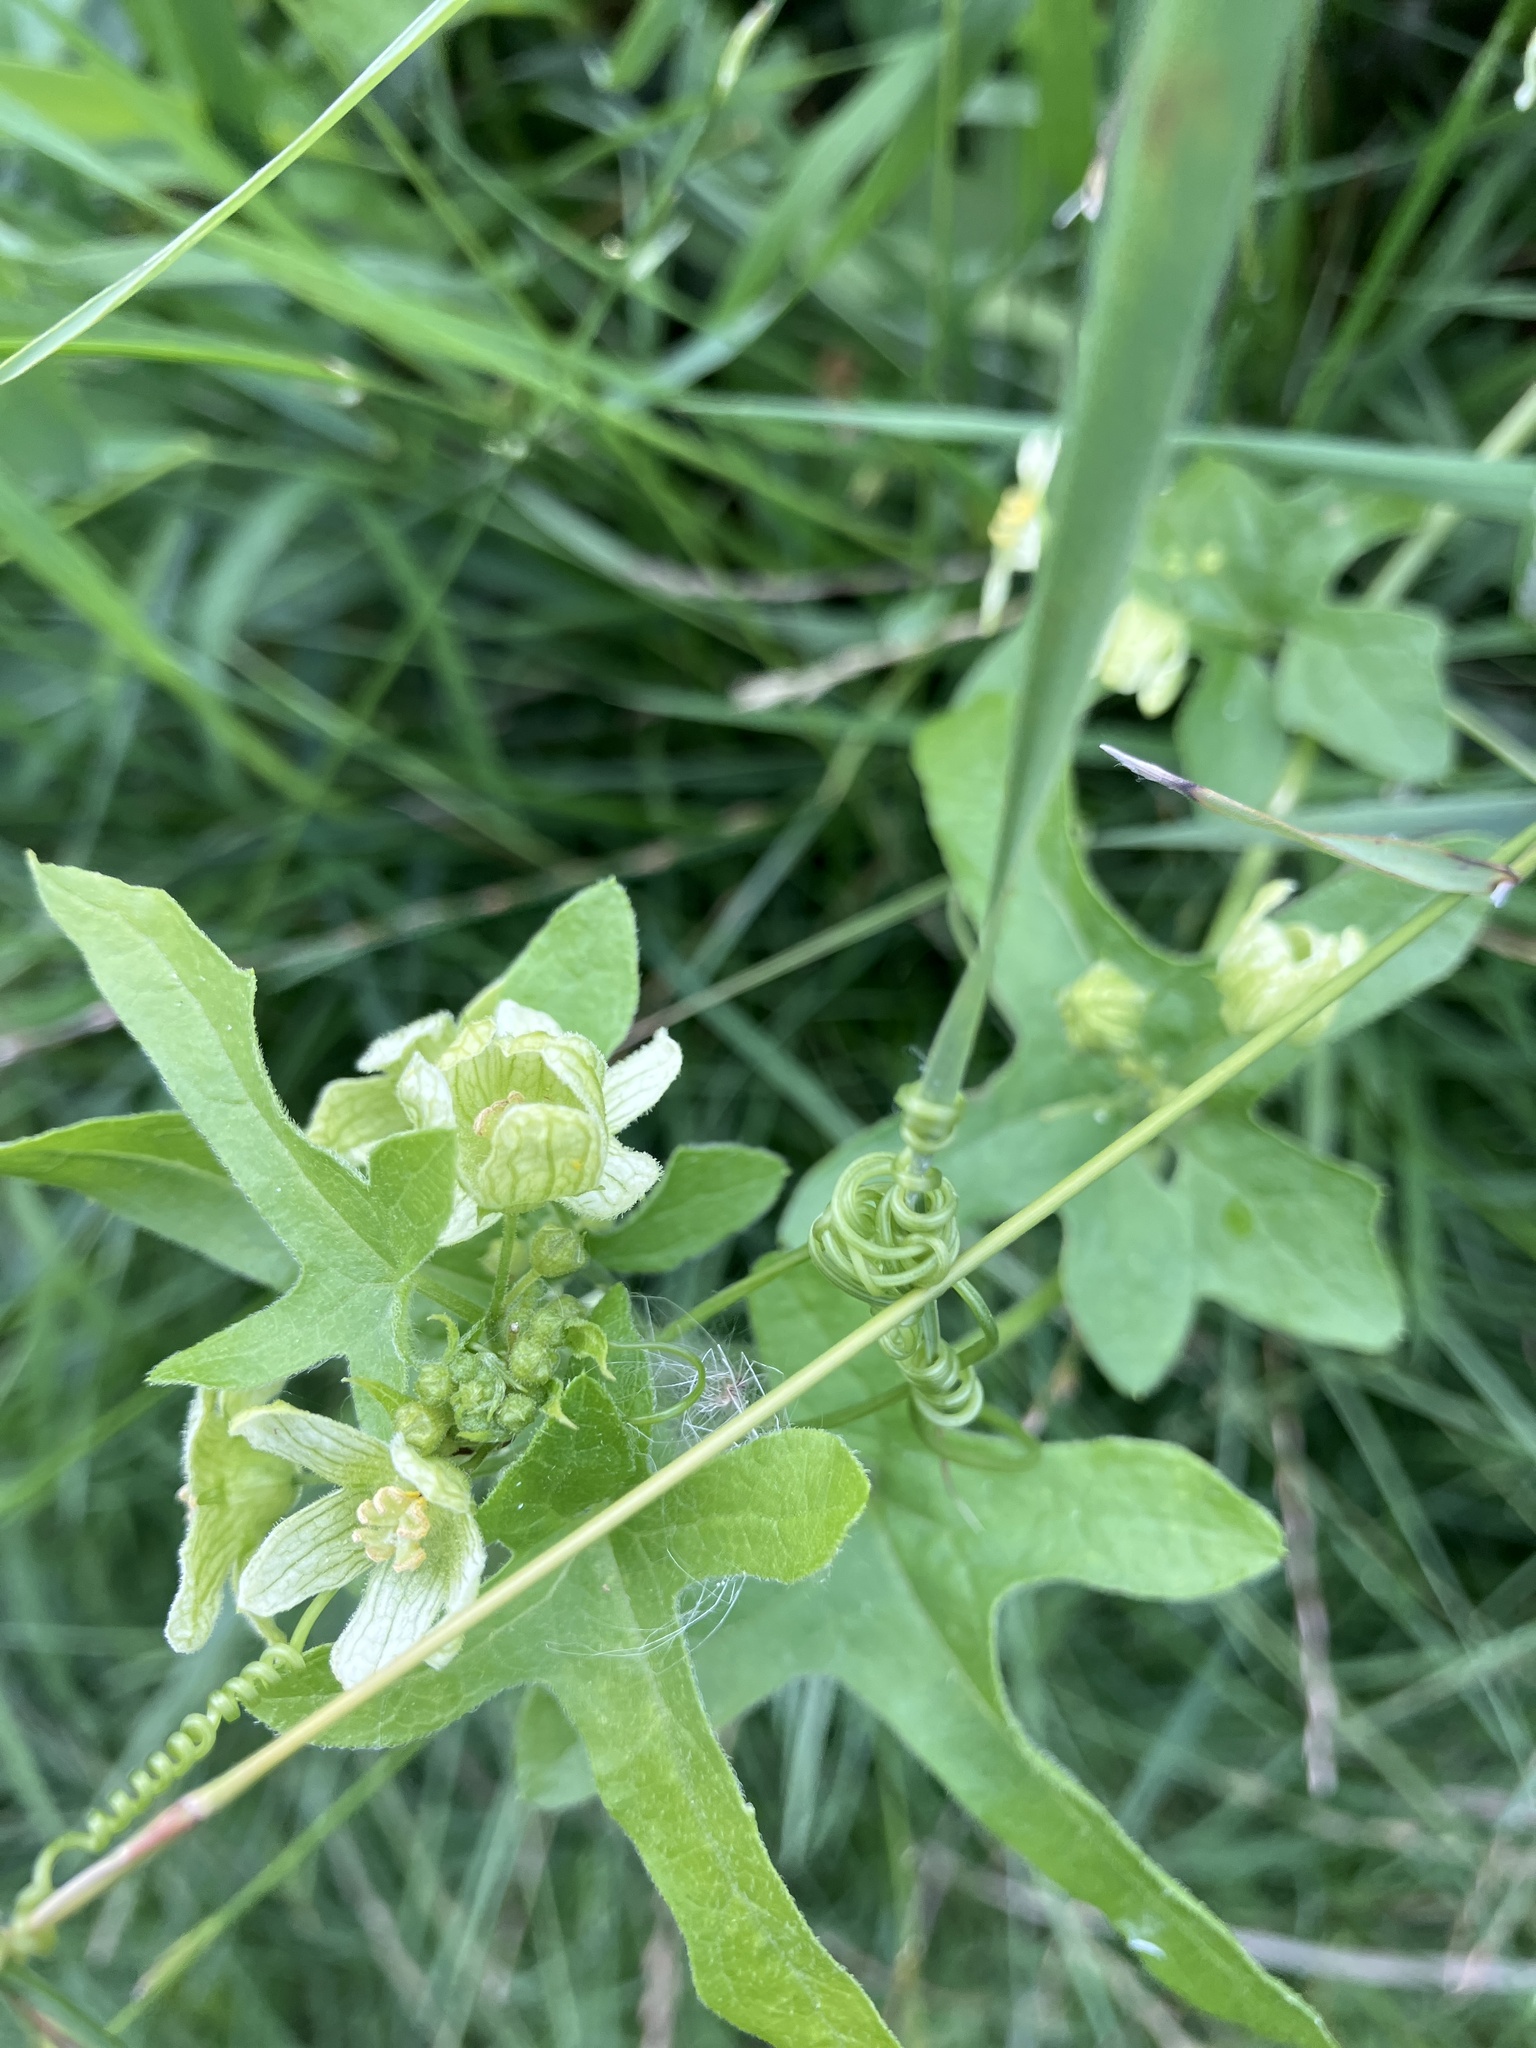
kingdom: Plantae
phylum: Tracheophyta
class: Magnoliopsida
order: Cucurbitales
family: Cucurbitaceae
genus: Bryonia
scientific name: Bryonia cretica
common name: Cretan bryony
